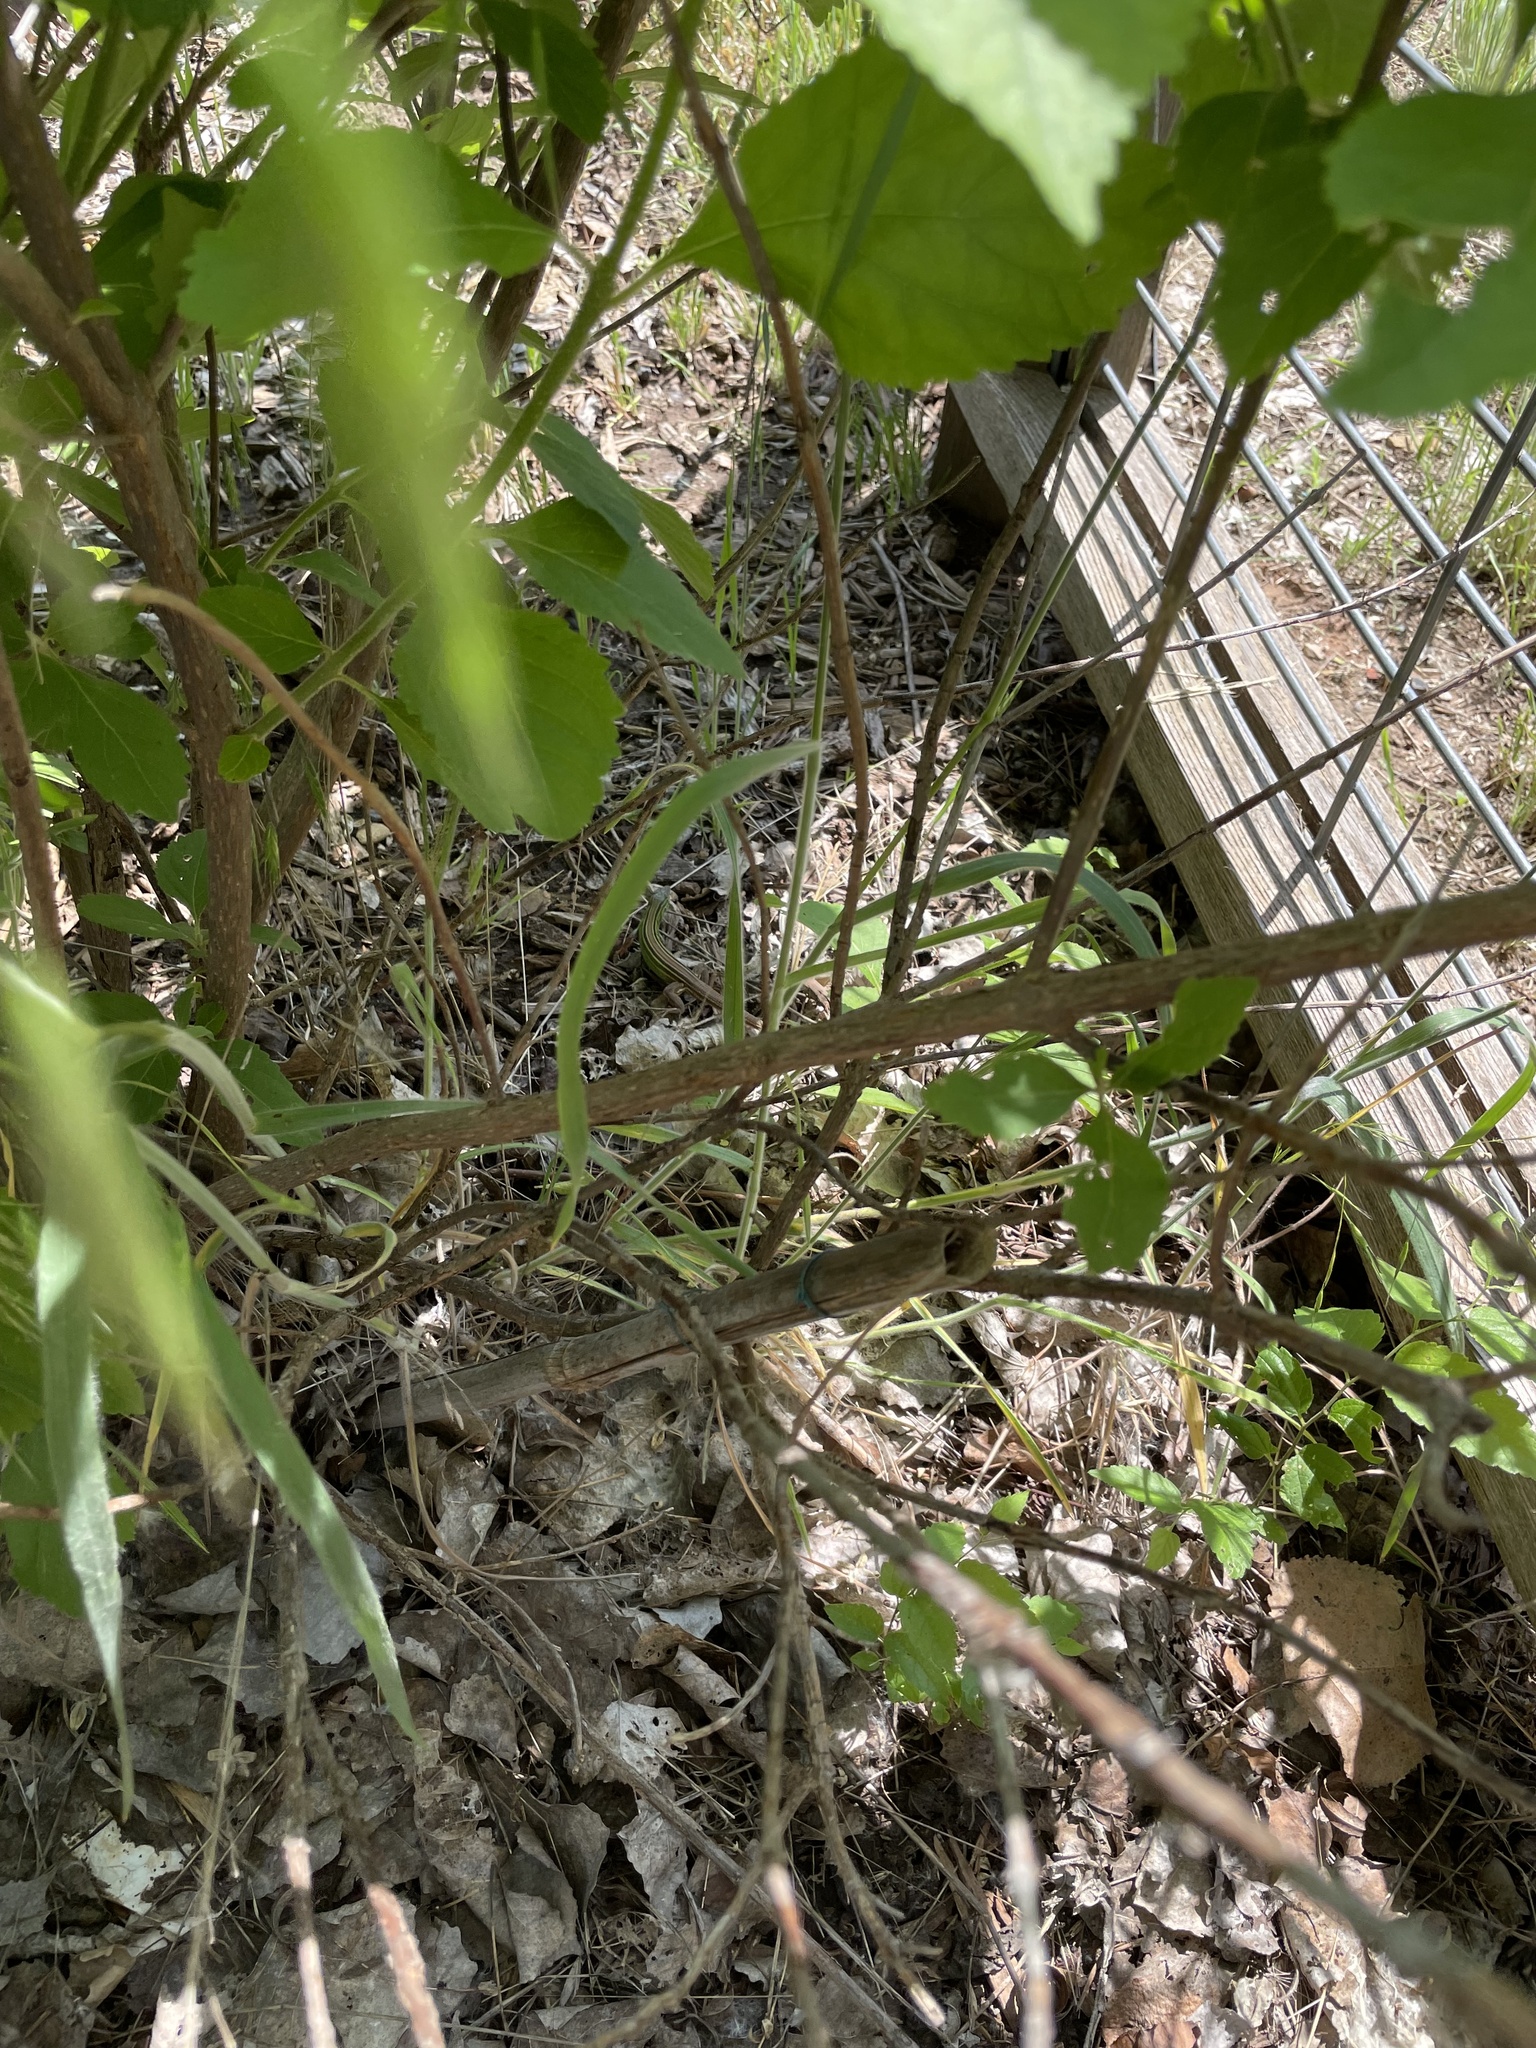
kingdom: Animalia
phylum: Chordata
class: Squamata
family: Teiidae
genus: Aspidoscelis
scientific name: Aspidoscelis sexlineatus
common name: Six-lined racerunner
